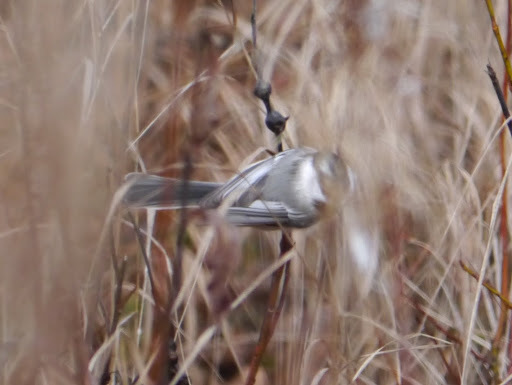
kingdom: Animalia
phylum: Chordata
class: Aves
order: Passeriformes
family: Paridae
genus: Poecile
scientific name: Poecile atricapillus
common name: Black-capped chickadee
